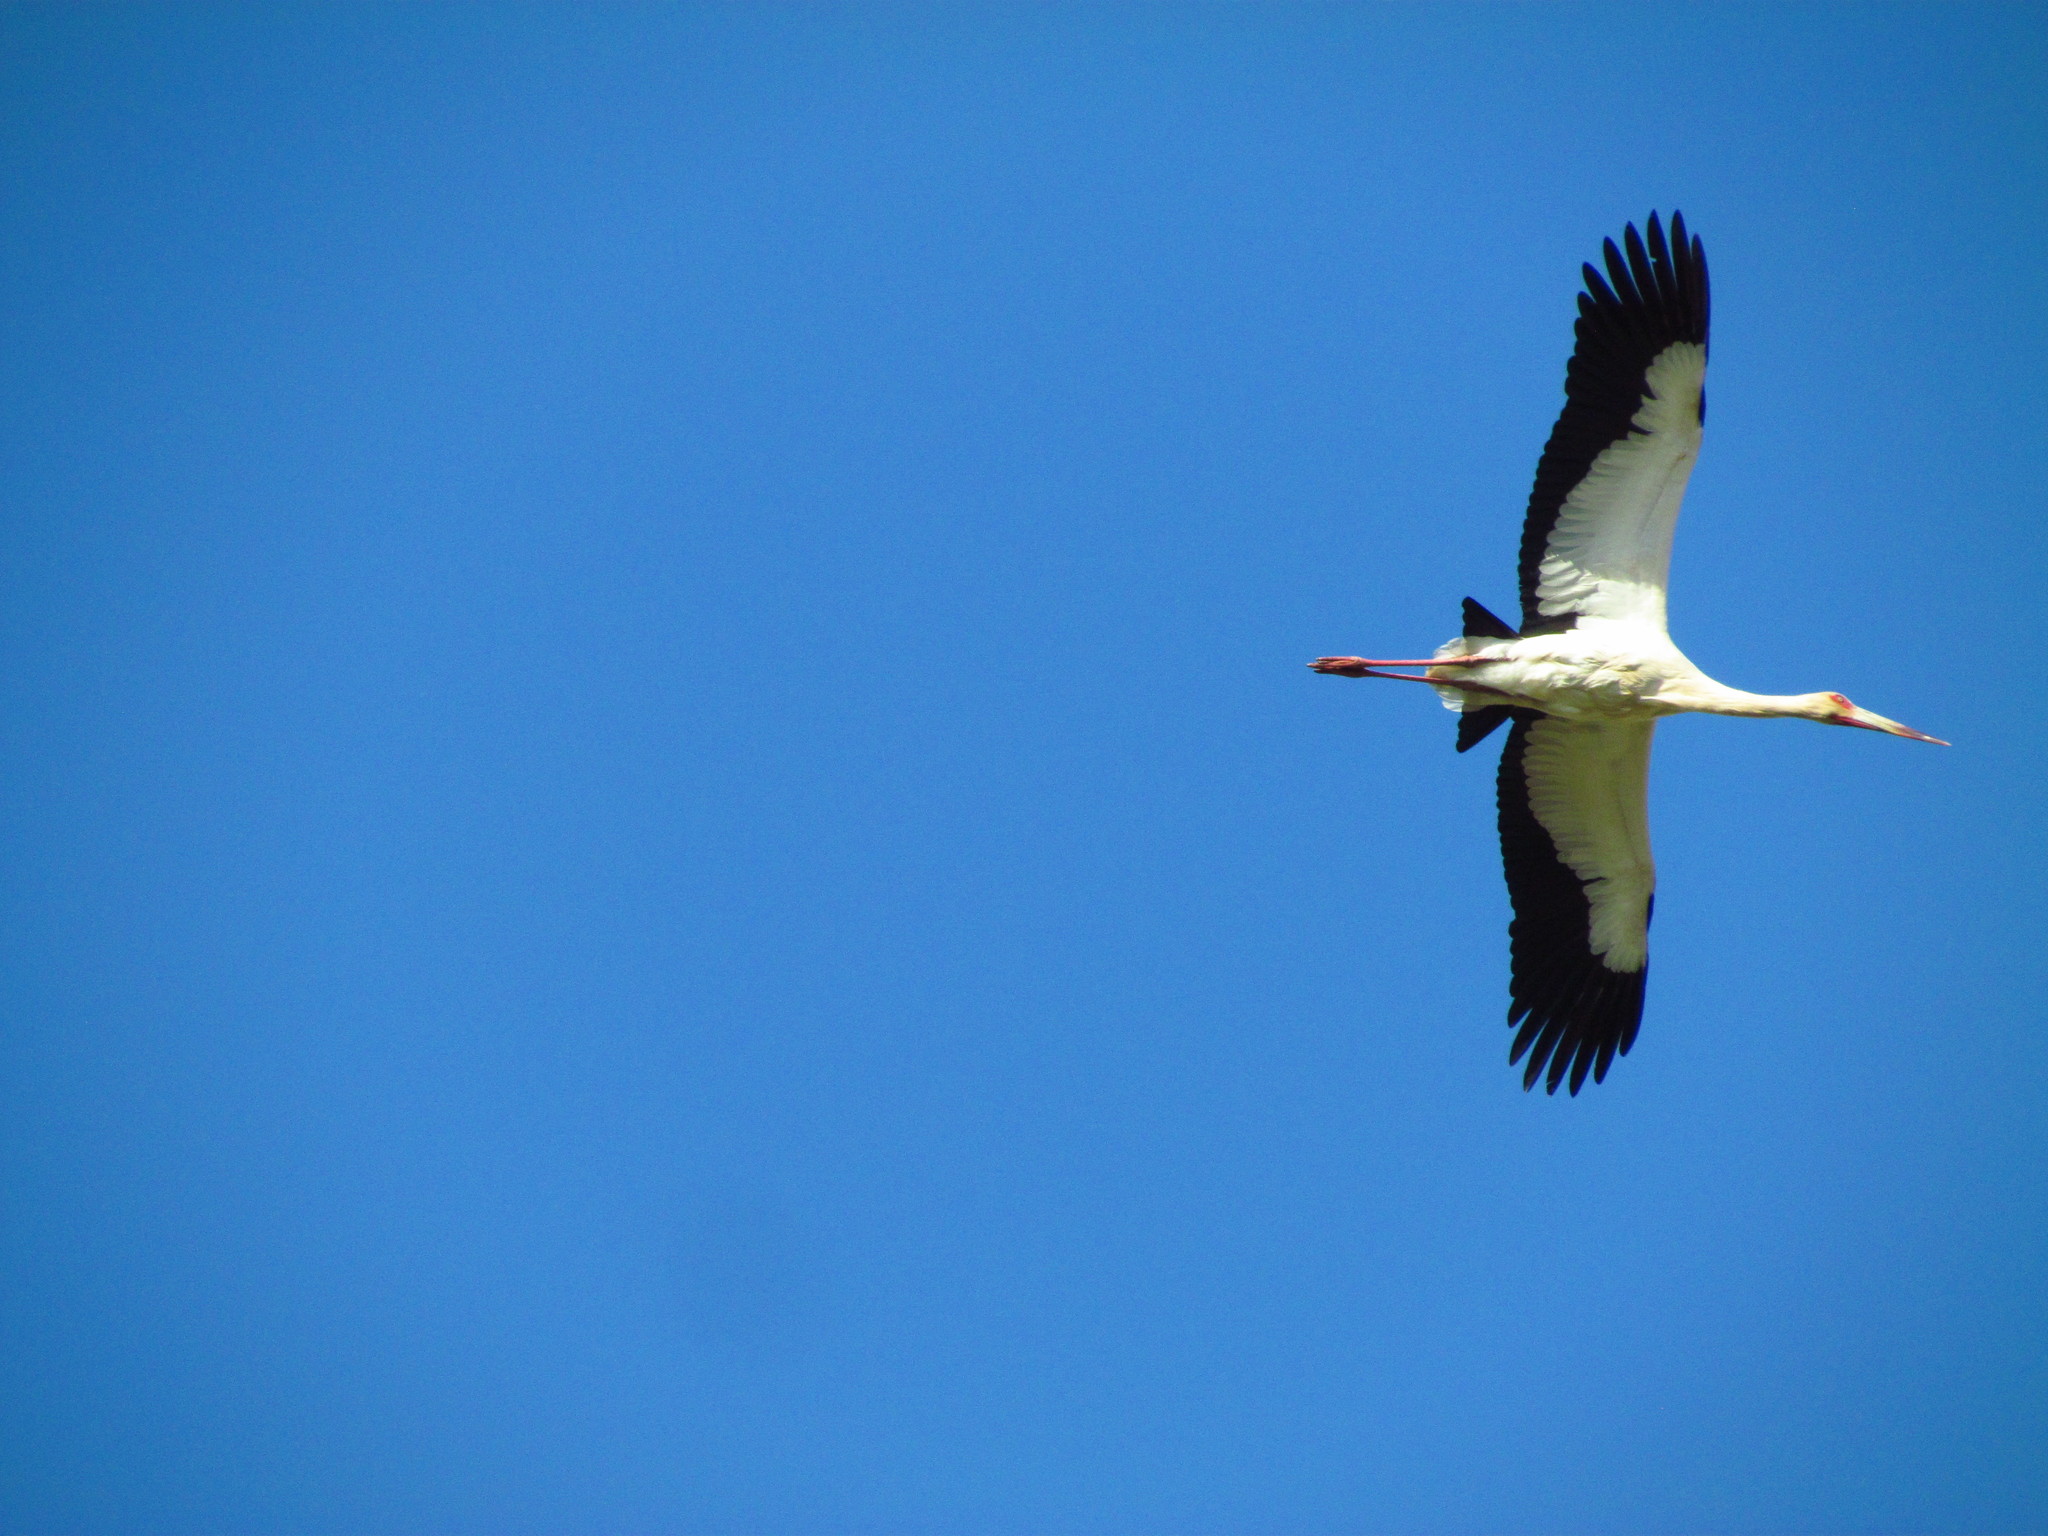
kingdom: Animalia
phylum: Chordata
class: Aves
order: Ciconiiformes
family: Ciconiidae
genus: Ciconia
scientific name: Ciconia maguari
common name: Maguari stork
